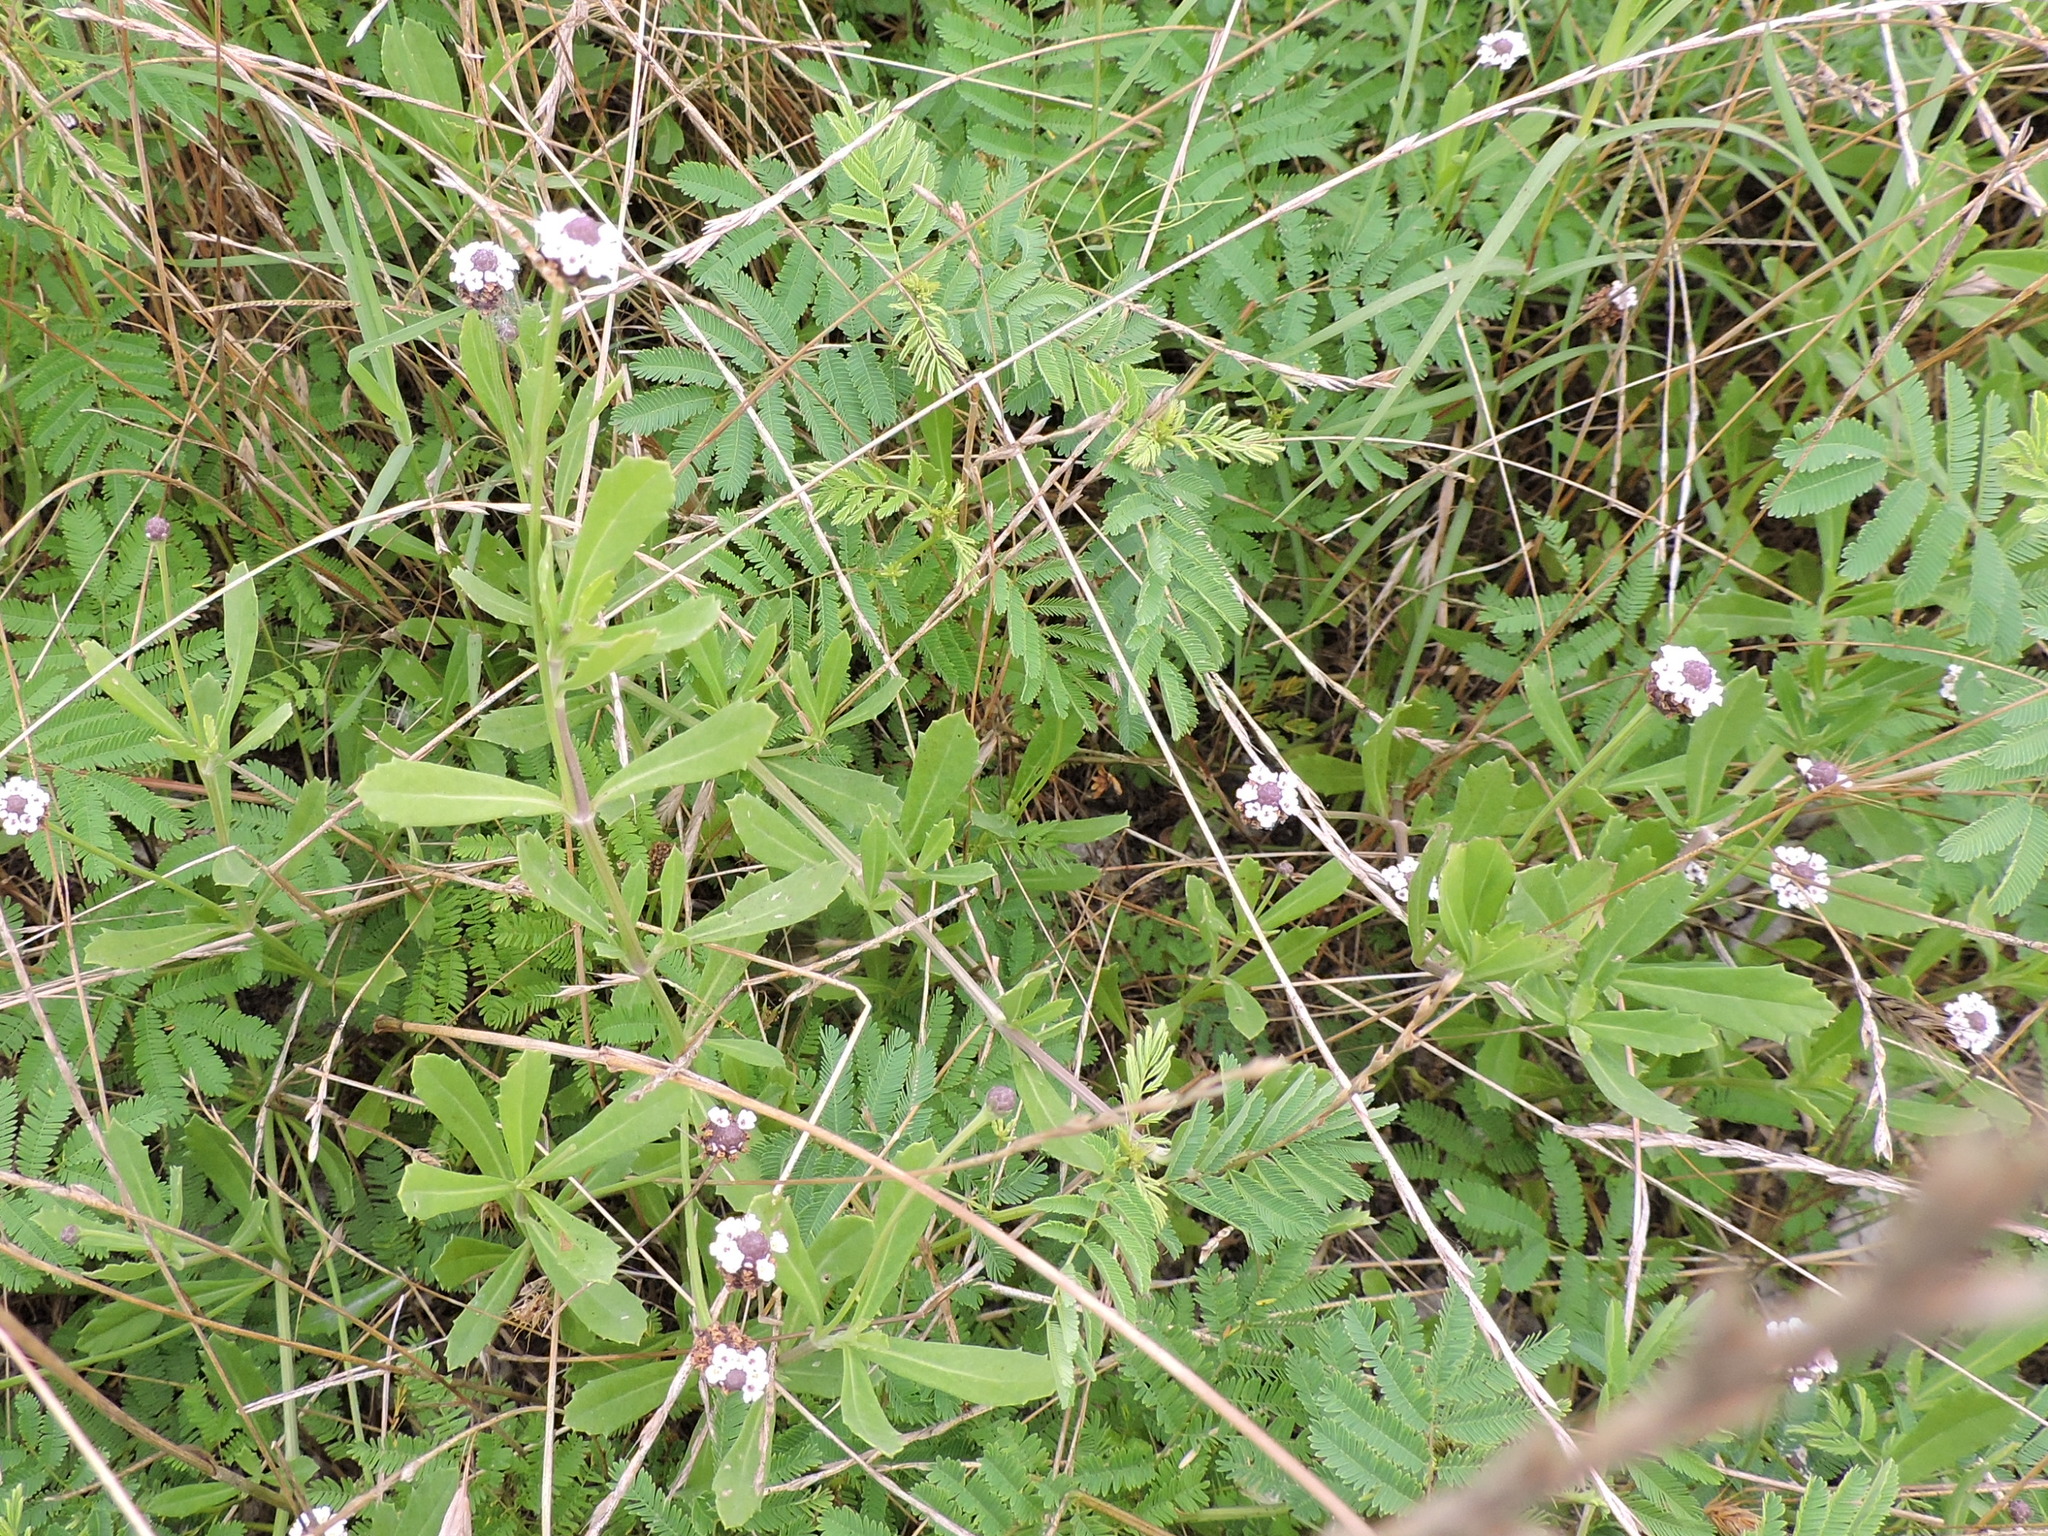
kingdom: Plantae
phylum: Tracheophyta
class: Magnoliopsida
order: Lamiales
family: Verbenaceae
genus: Phyla
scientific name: Phyla nodiflora
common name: Frogfruit
